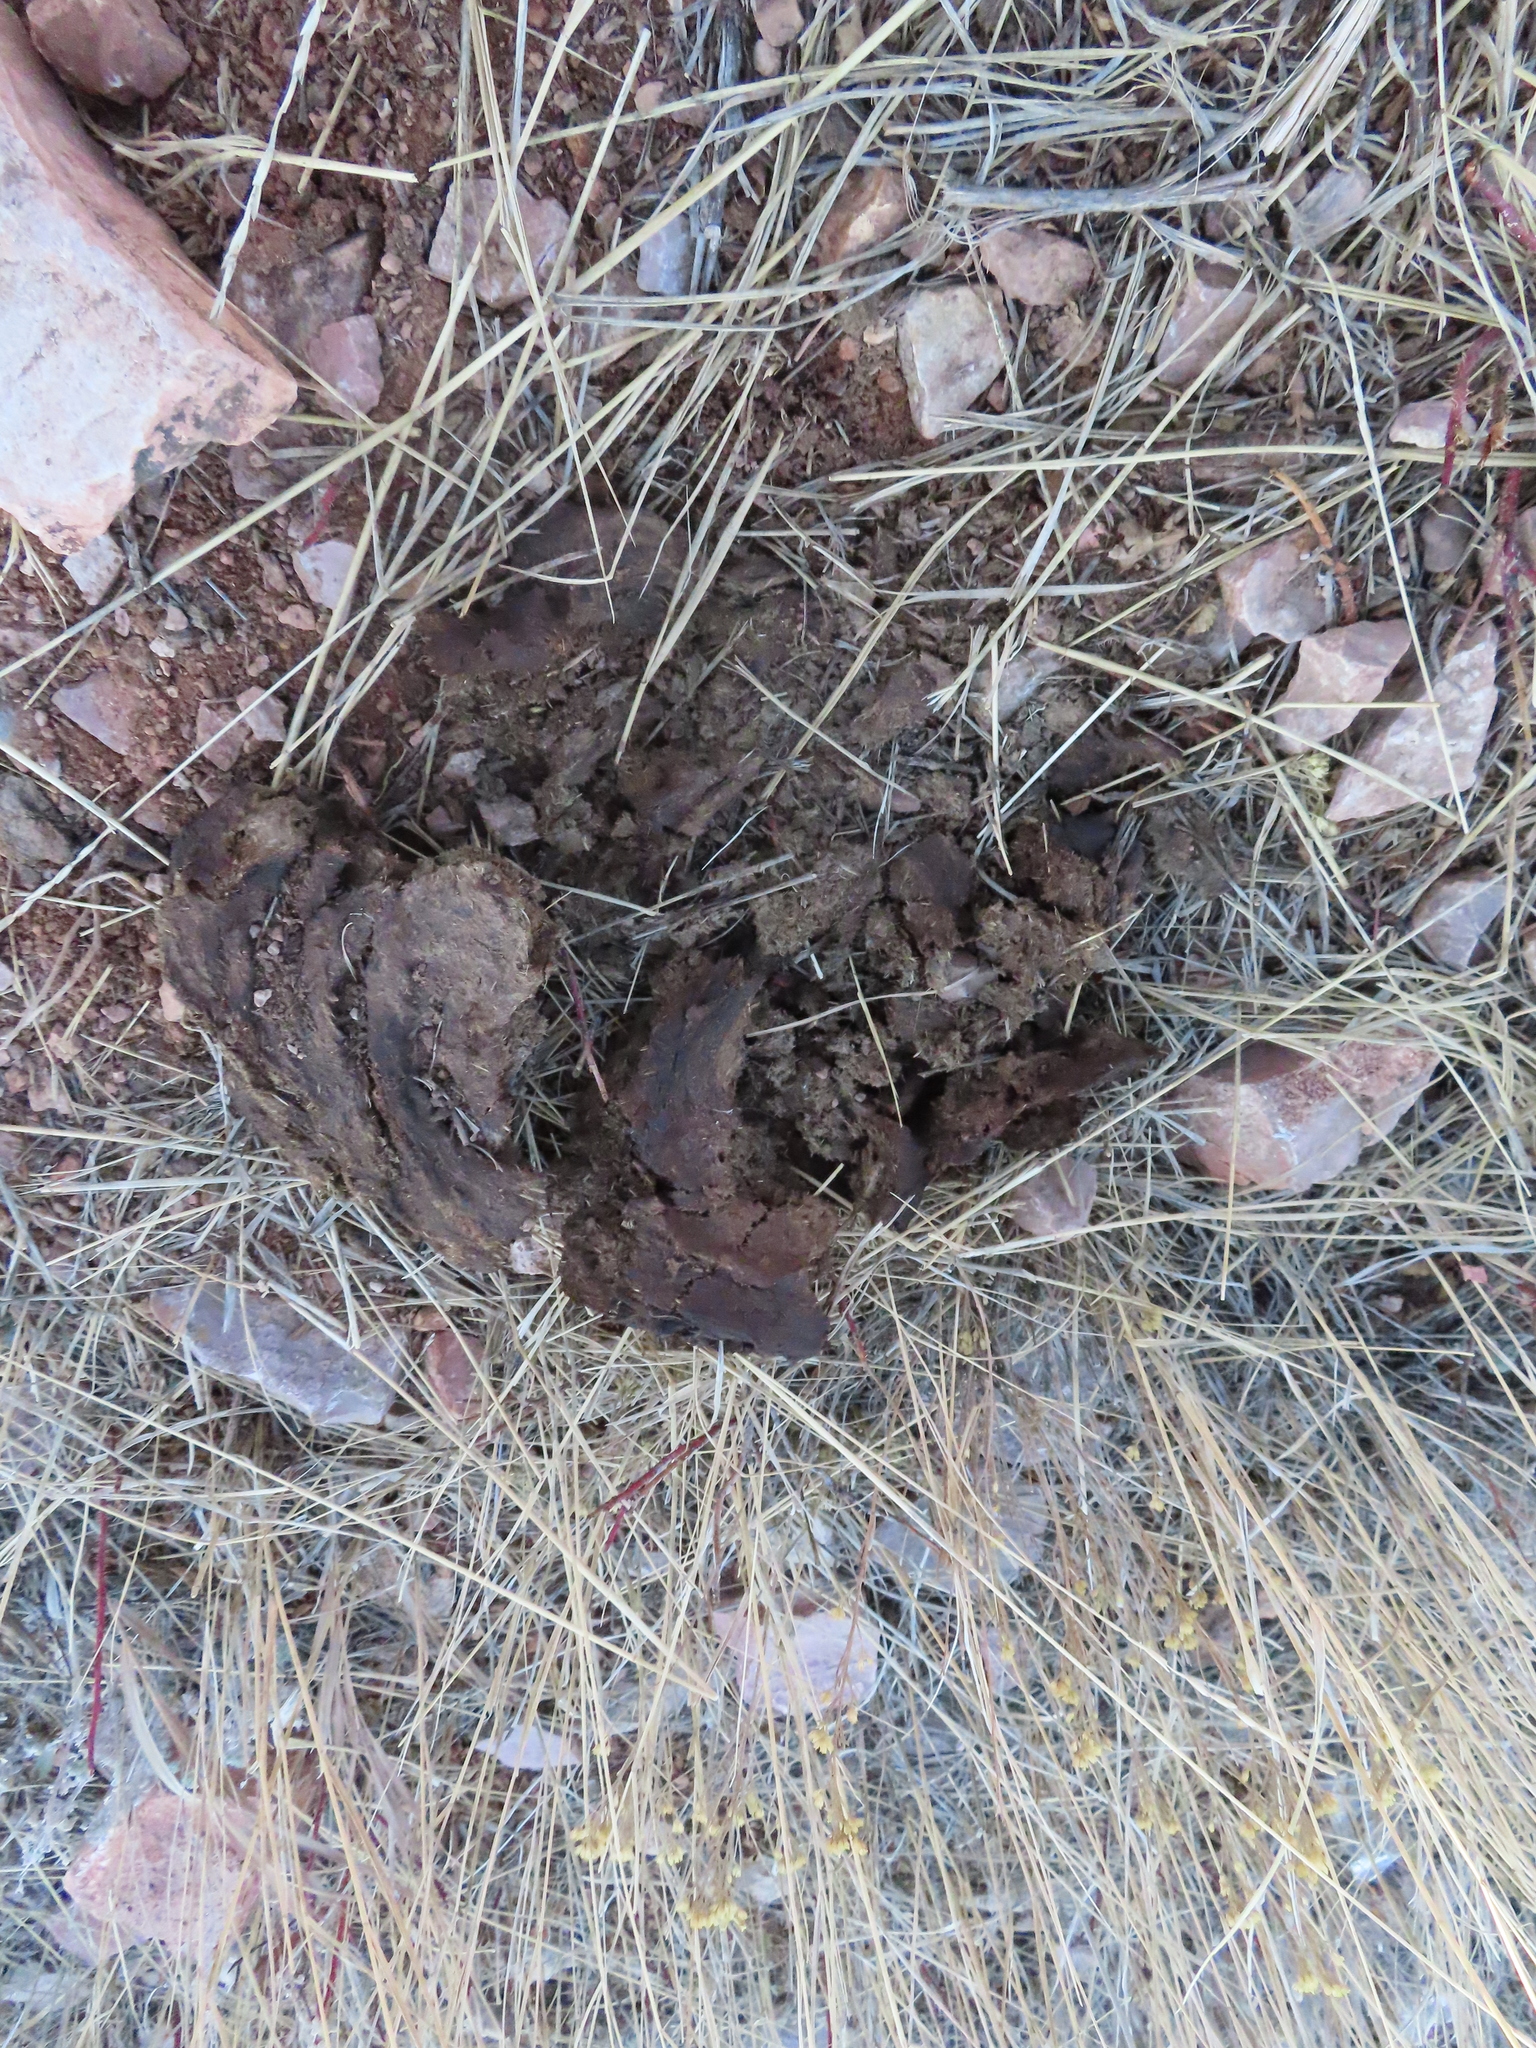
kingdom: Animalia
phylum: Chordata
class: Mammalia
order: Artiodactyla
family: Bovidae
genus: Bison
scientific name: Bison bison
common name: American bison
